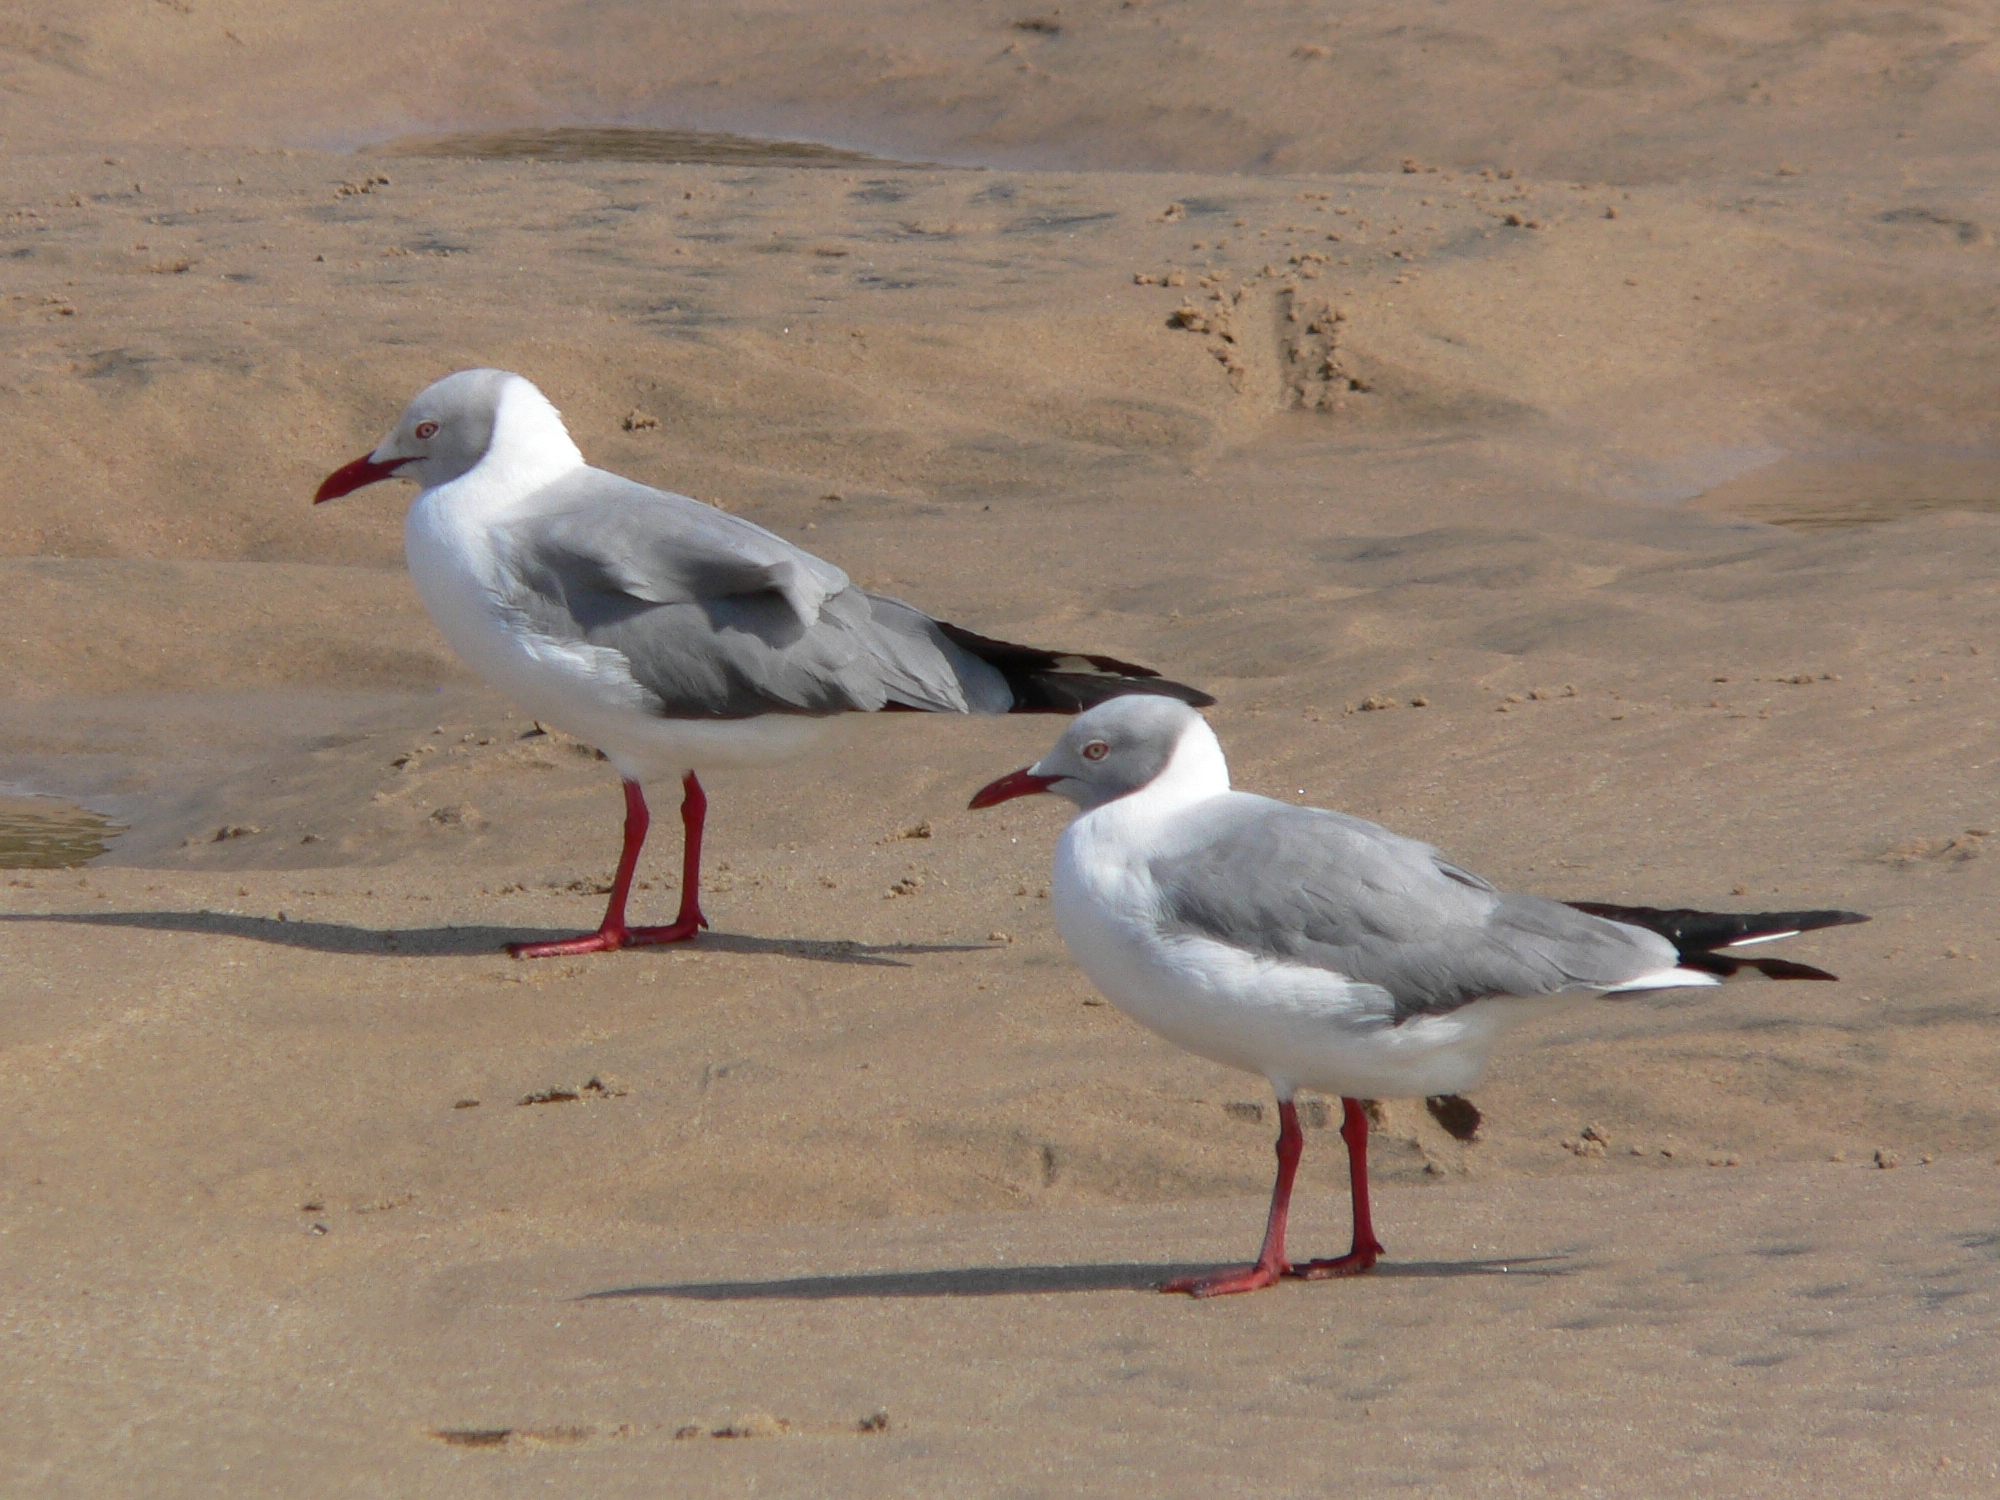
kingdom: Animalia
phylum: Chordata
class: Aves
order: Charadriiformes
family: Laridae
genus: Chroicocephalus
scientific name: Chroicocephalus cirrocephalus
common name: Grey-headed gull
